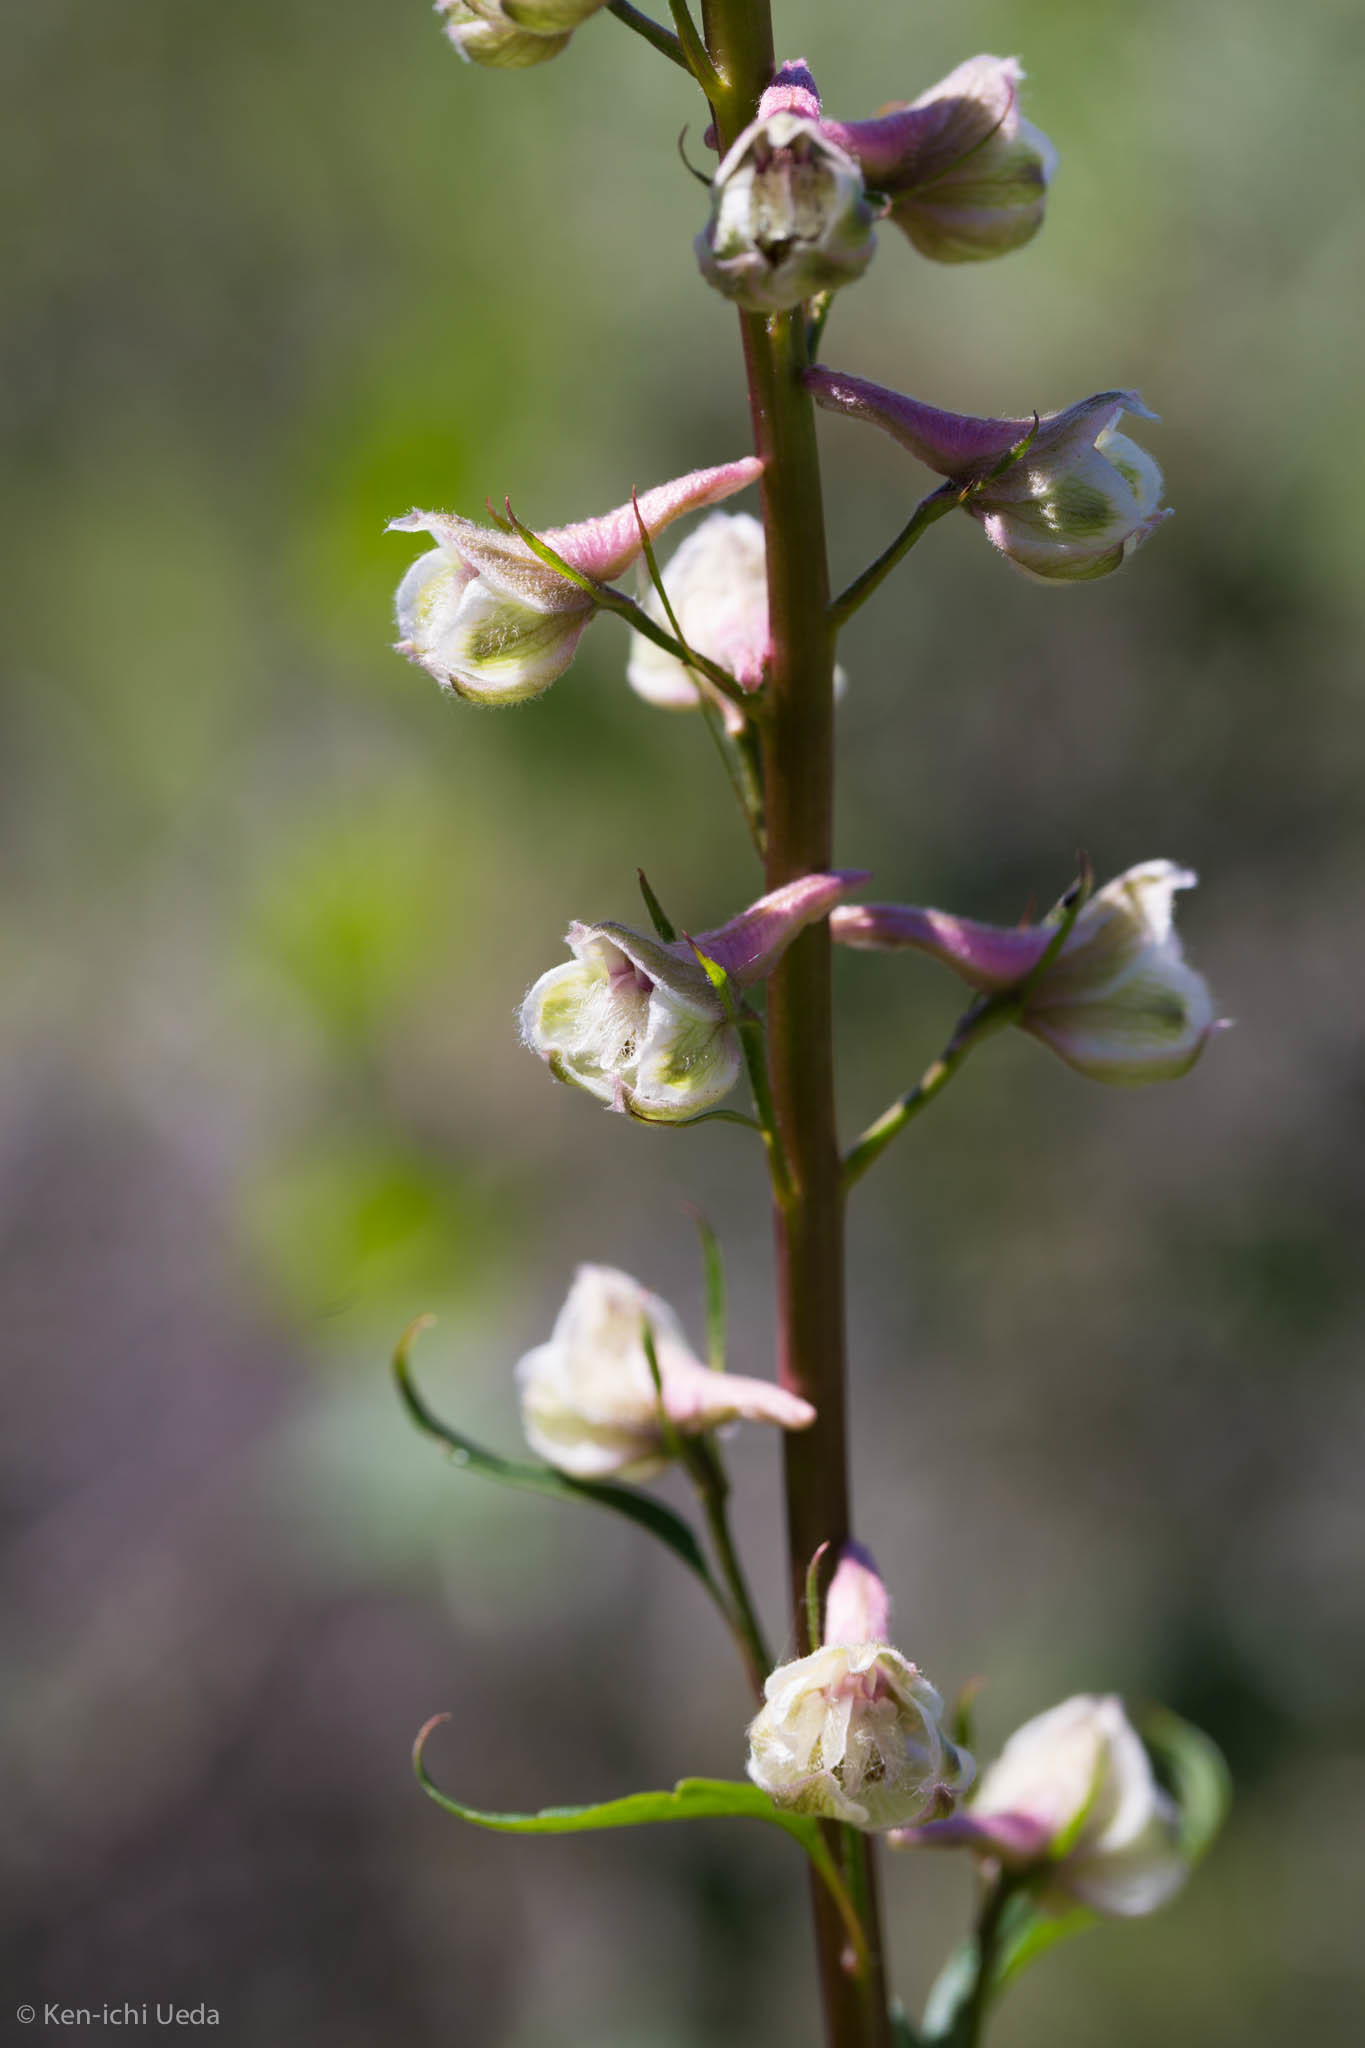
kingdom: Plantae
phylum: Tracheophyta
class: Magnoliopsida
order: Ranunculales
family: Ranunculaceae
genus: Delphinium
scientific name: Delphinium californicum
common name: California larkspur
